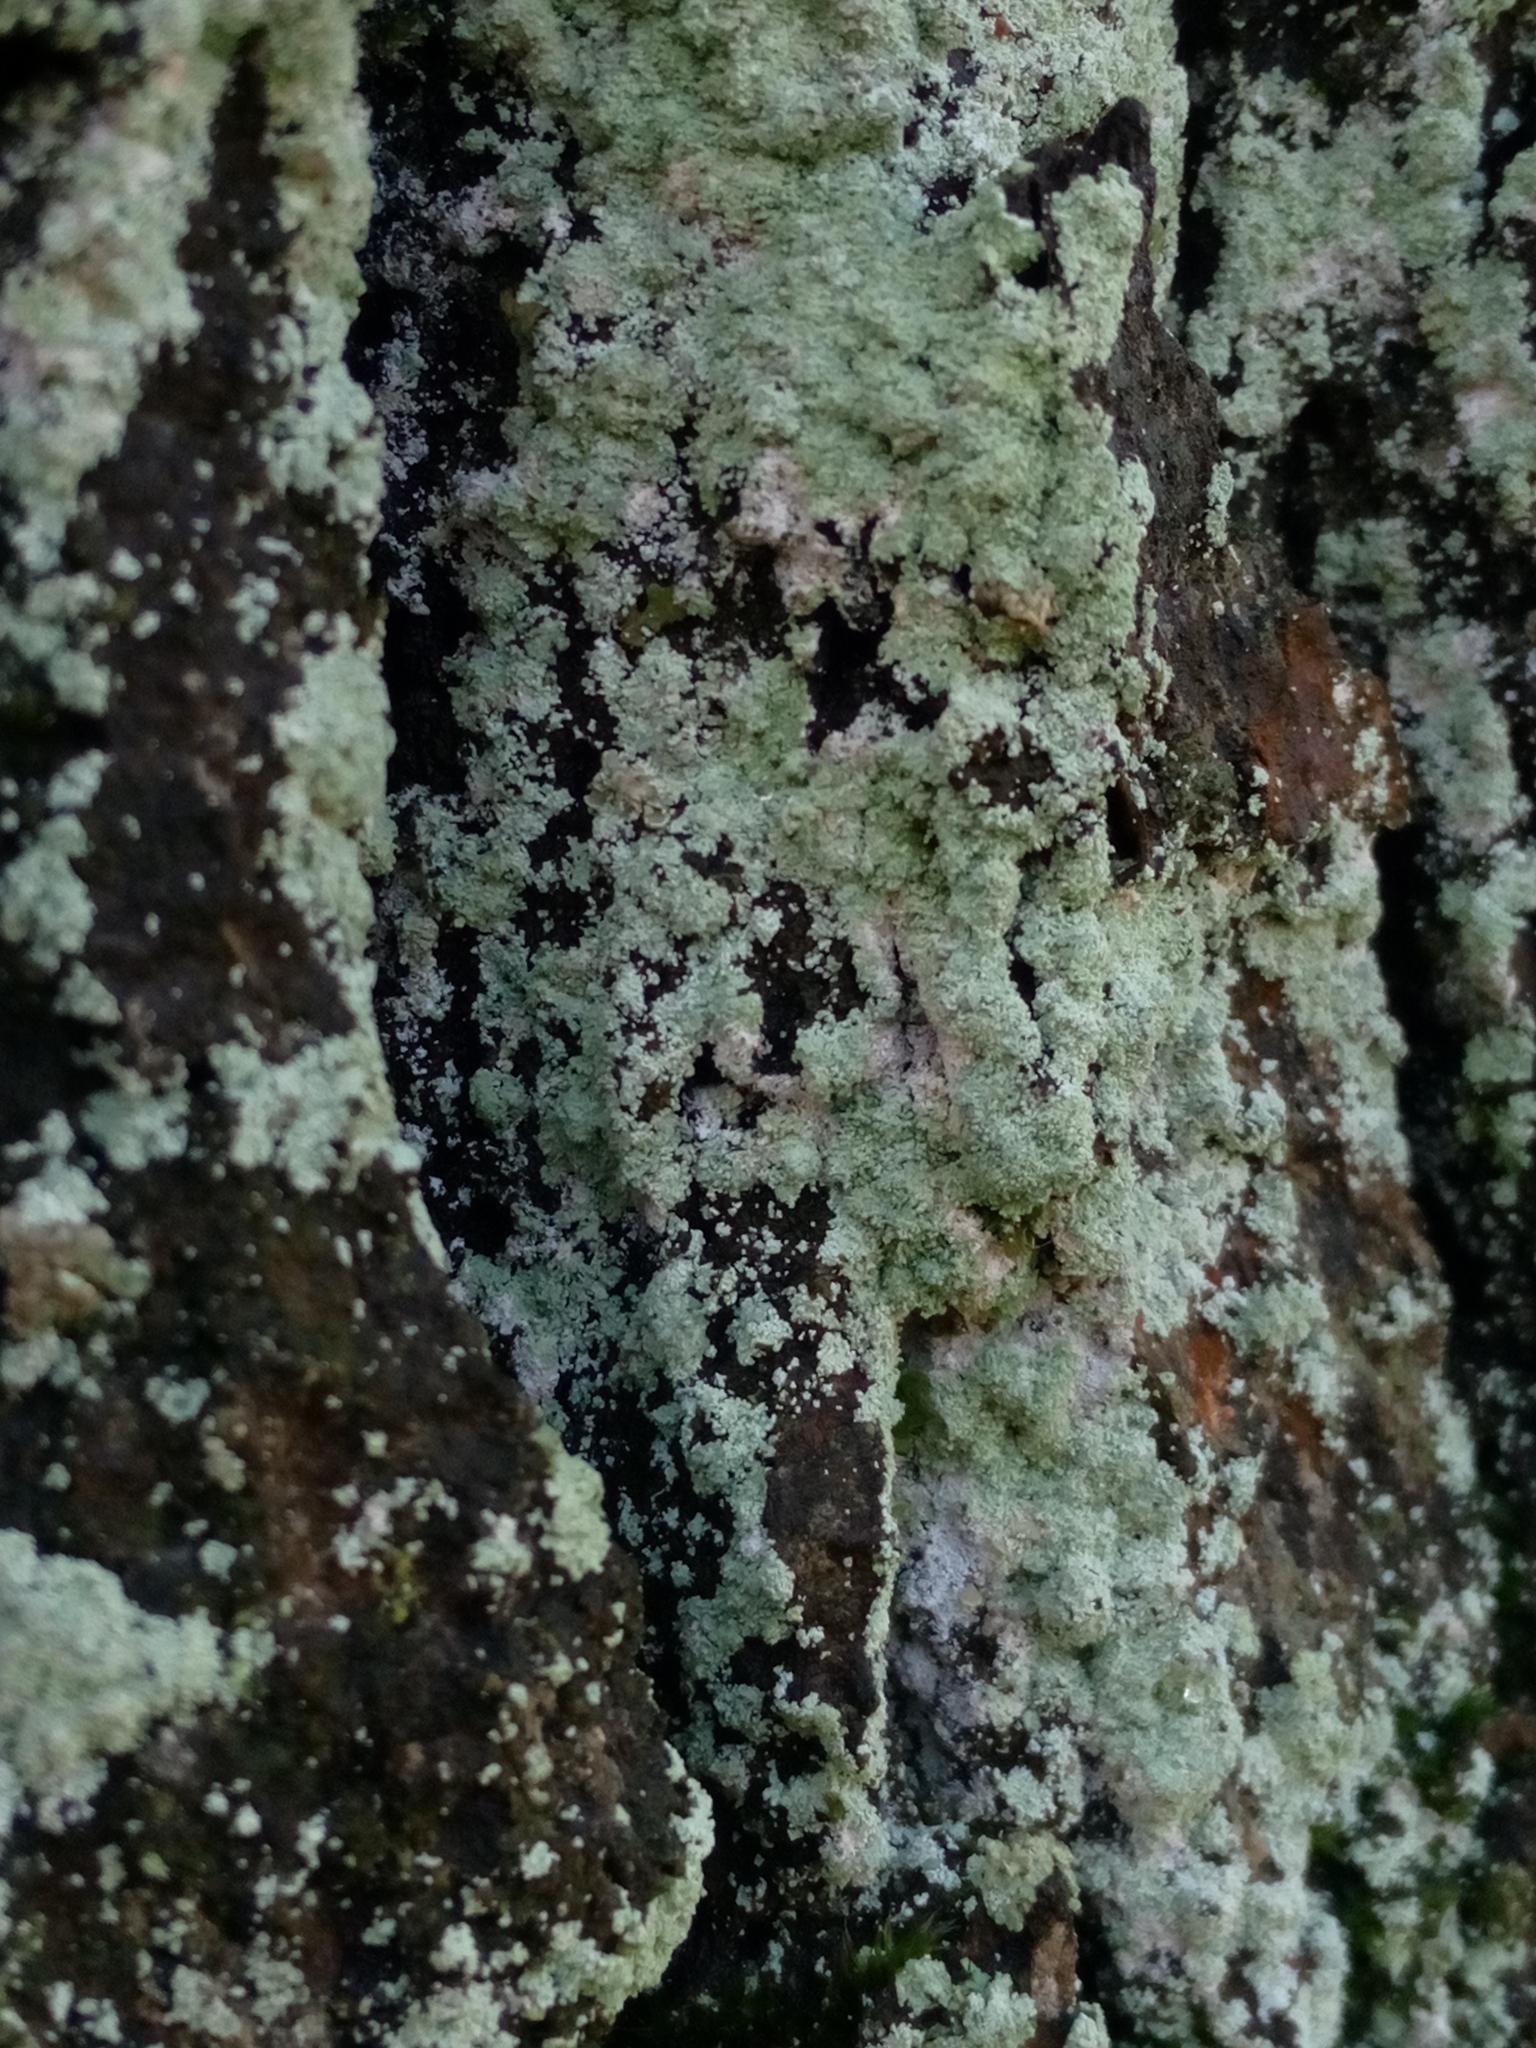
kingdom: Fungi
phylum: Ascomycota
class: Lecanoromycetes
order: Lecanorales
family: Stereocaulaceae
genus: Lepraria
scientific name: Lepraria
